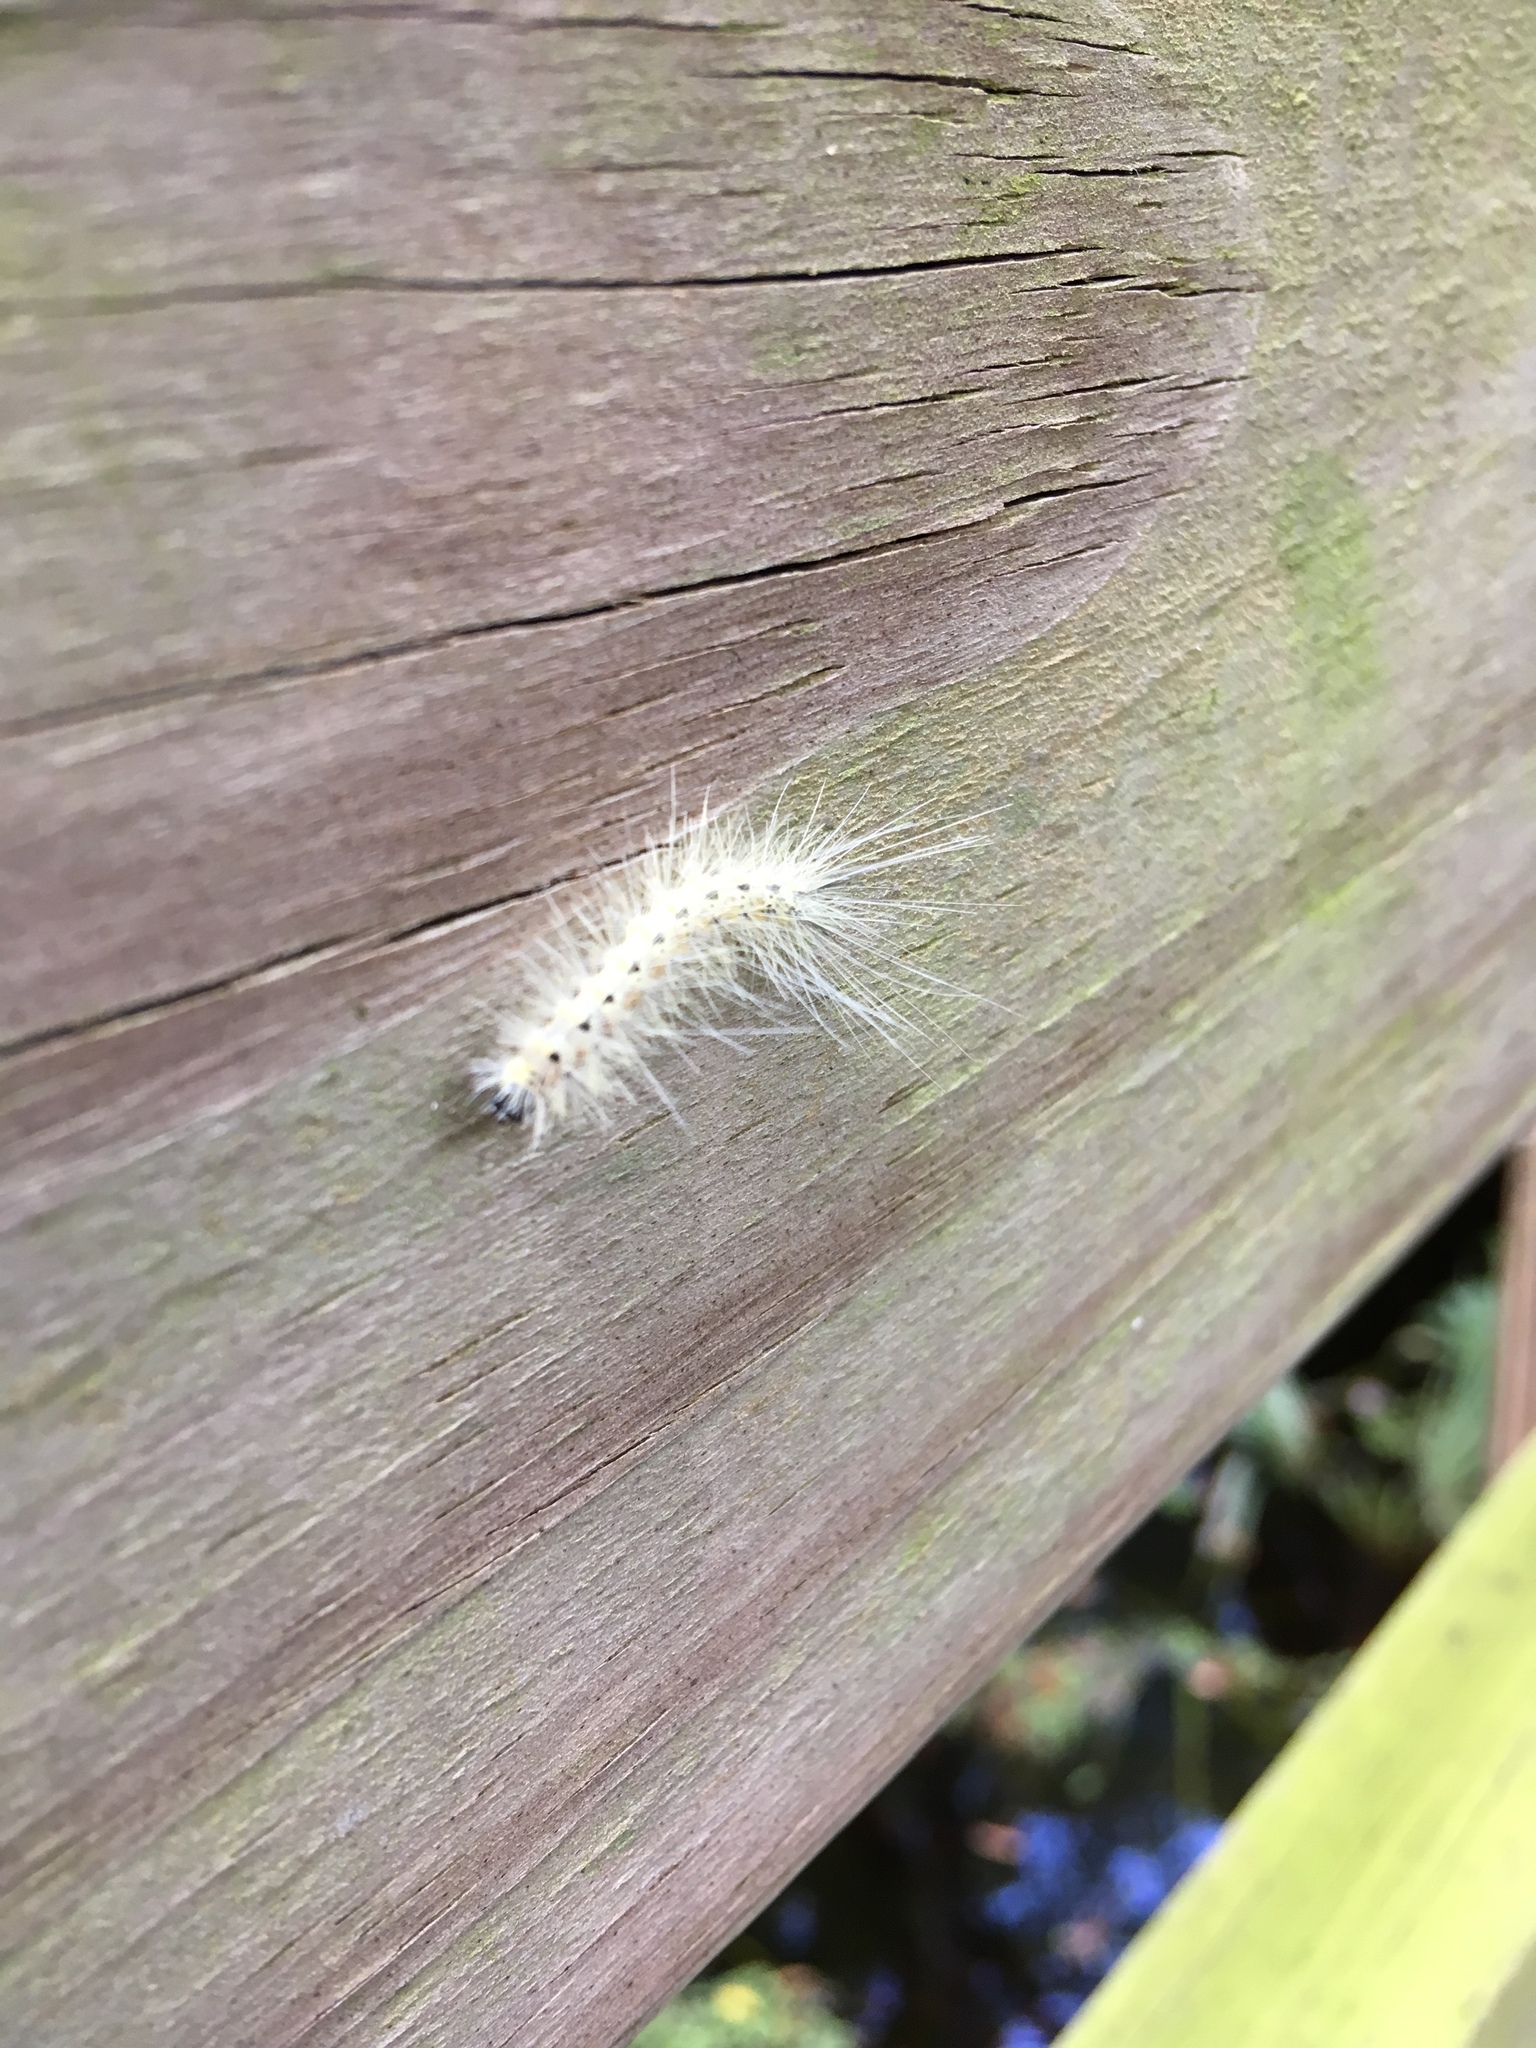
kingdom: Animalia
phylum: Arthropoda
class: Insecta
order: Lepidoptera
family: Erebidae
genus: Hyphantria
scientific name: Hyphantria cunea
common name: American white moth
